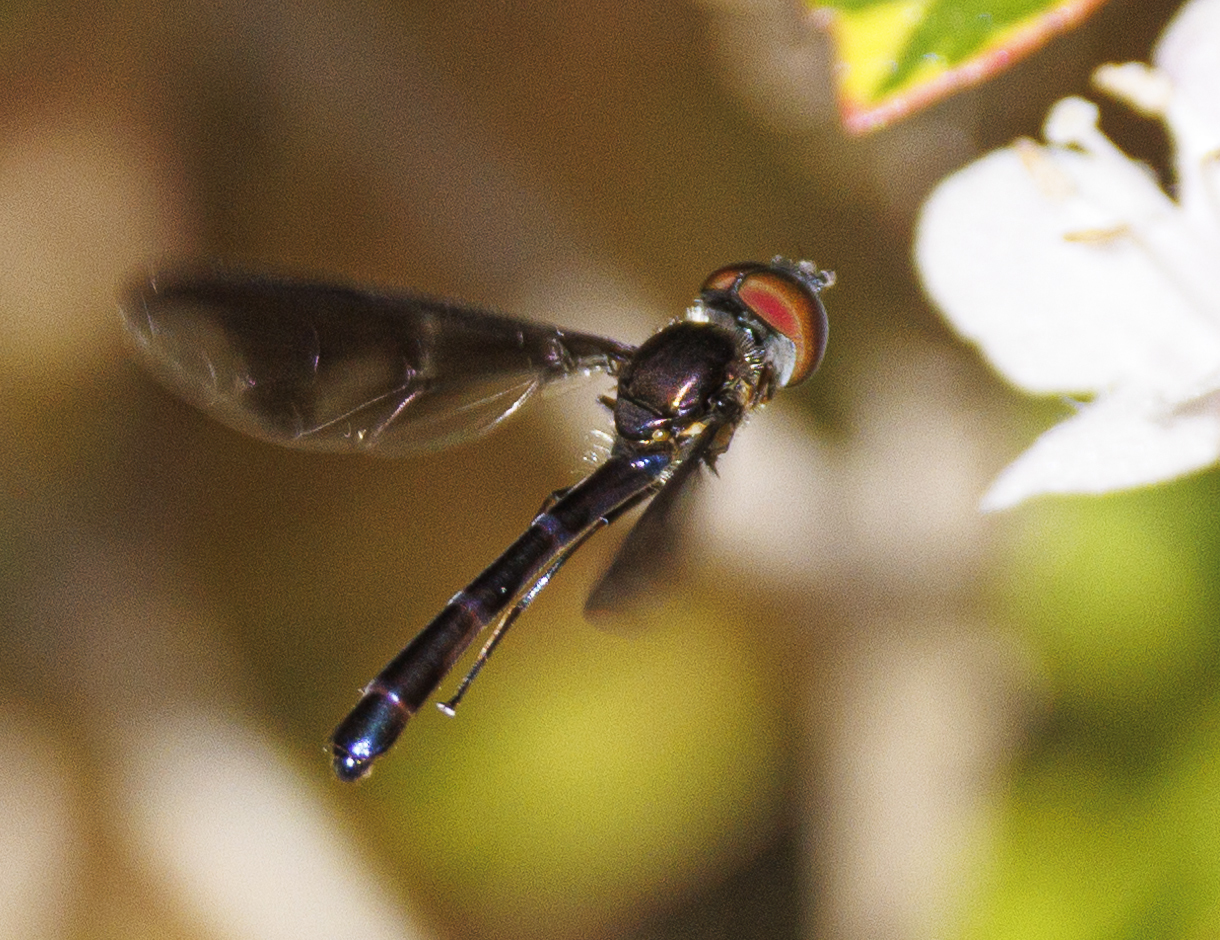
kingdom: Animalia
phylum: Arthropoda
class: Insecta
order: Diptera
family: Syrphidae
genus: Ocyptamus
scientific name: Ocyptamus fuscipennis
